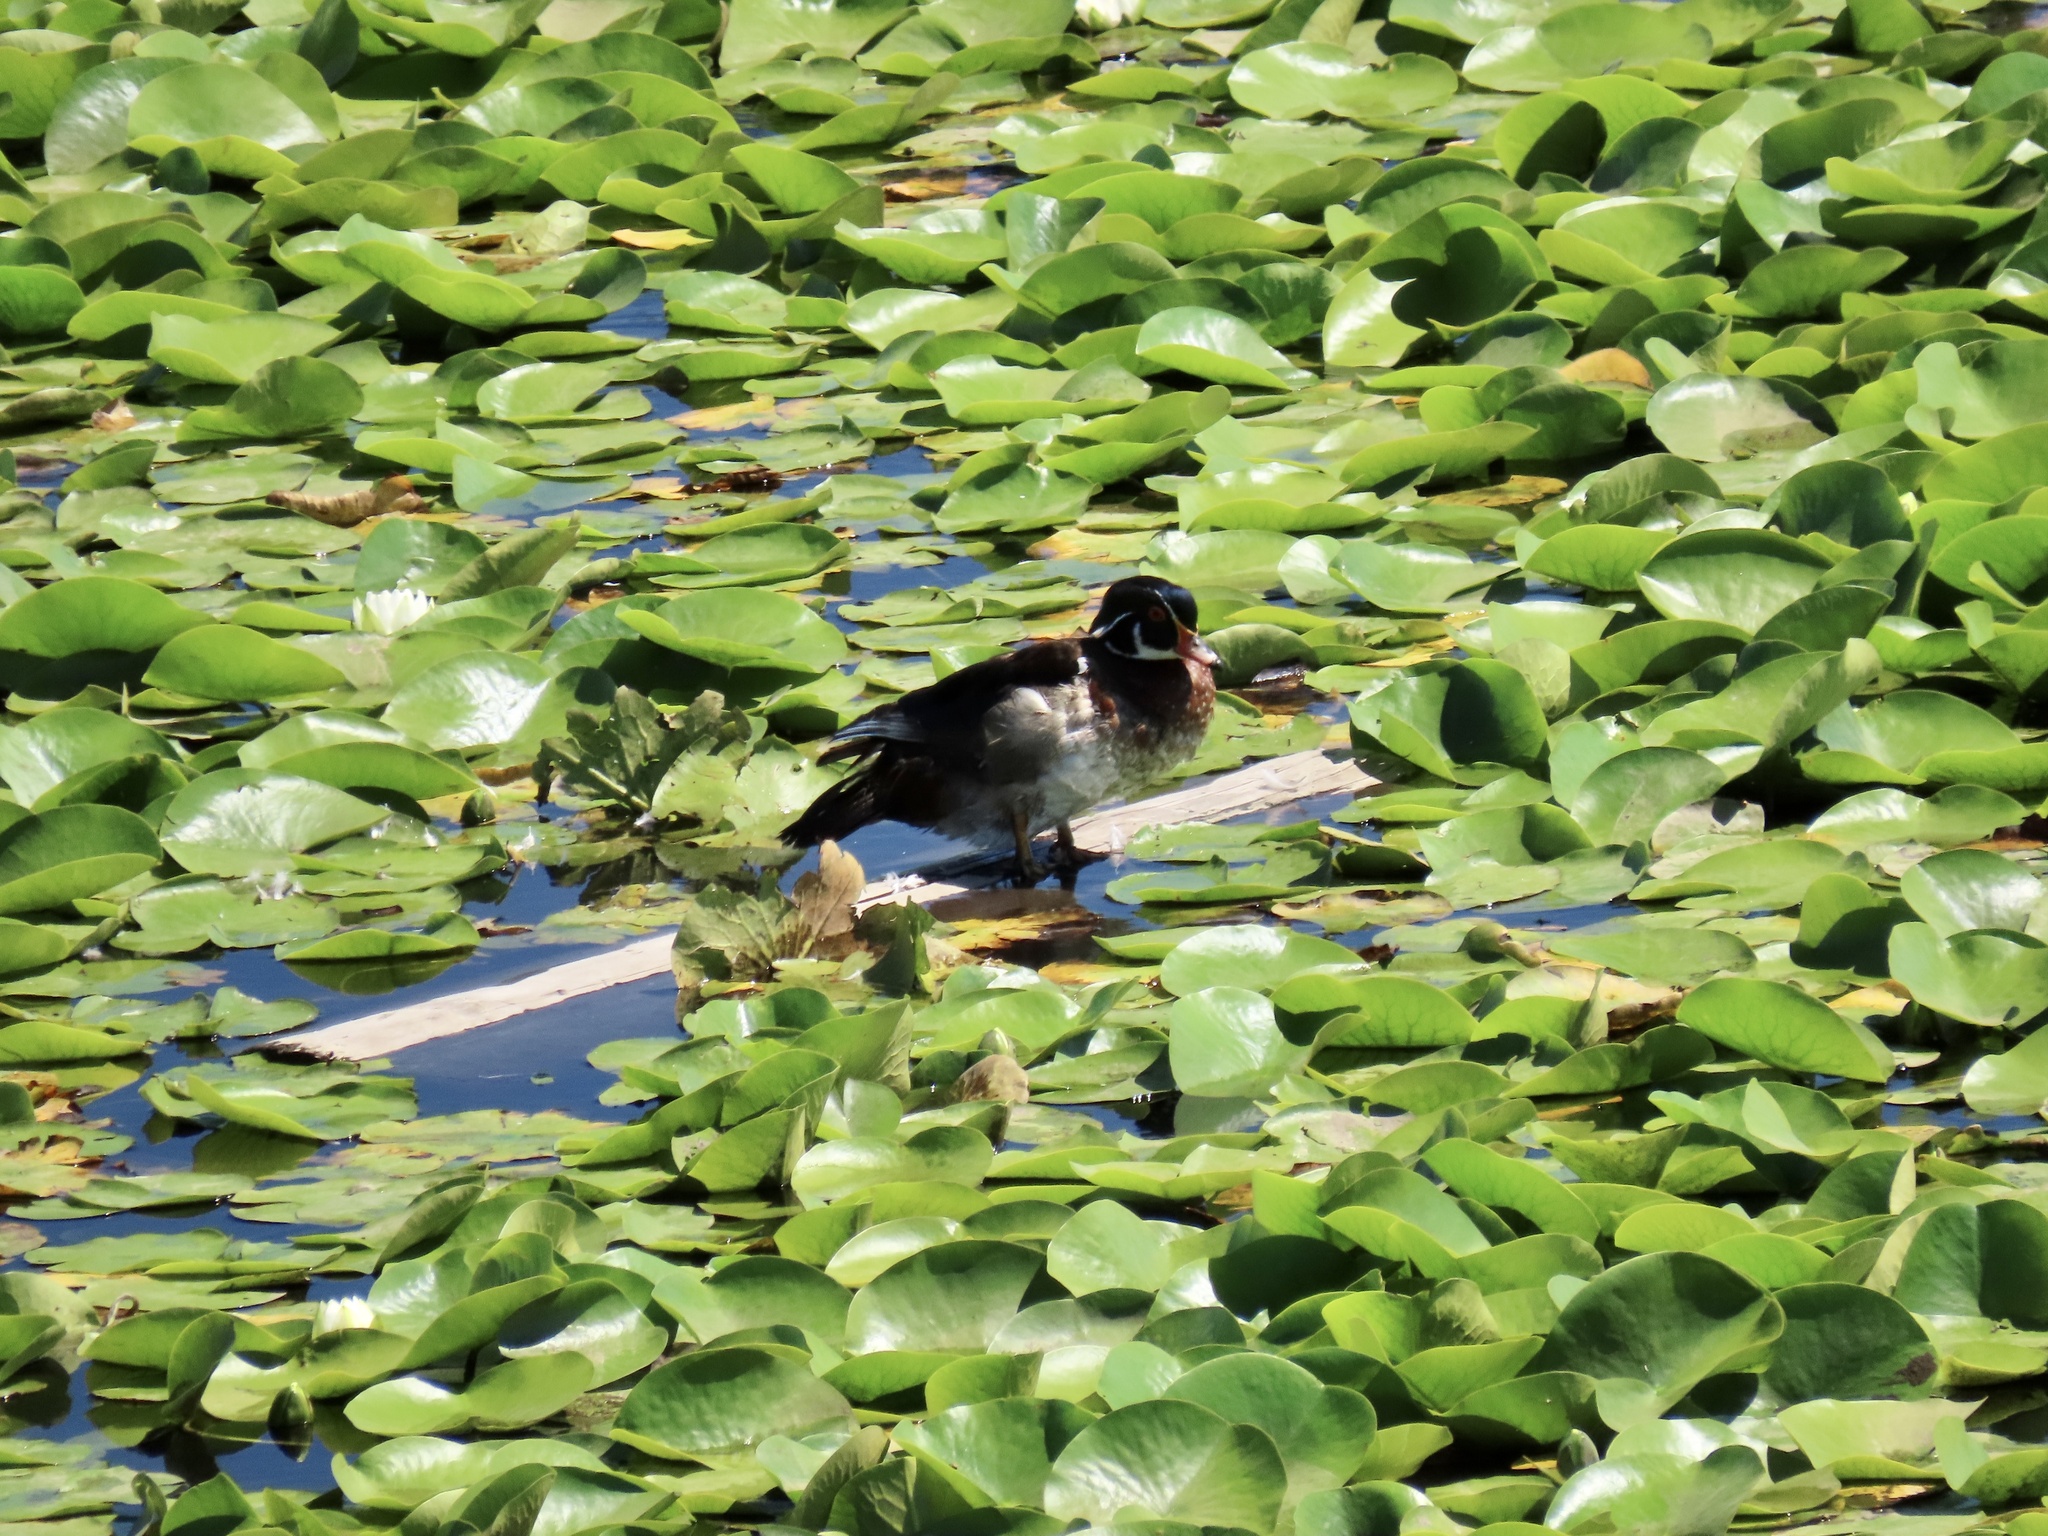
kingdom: Animalia
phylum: Chordata
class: Aves
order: Anseriformes
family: Anatidae
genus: Aix
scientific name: Aix sponsa
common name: Wood duck
